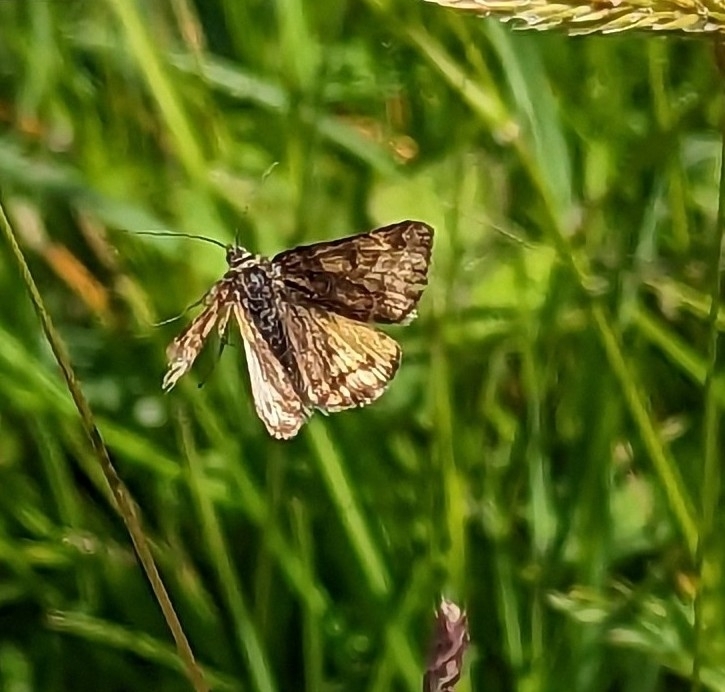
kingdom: Animalia
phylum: Arthropoda
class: Insecta
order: Lepidoptera
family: Erebidae
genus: Euclidia
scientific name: Euclidia glyphica
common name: Burnet companion
